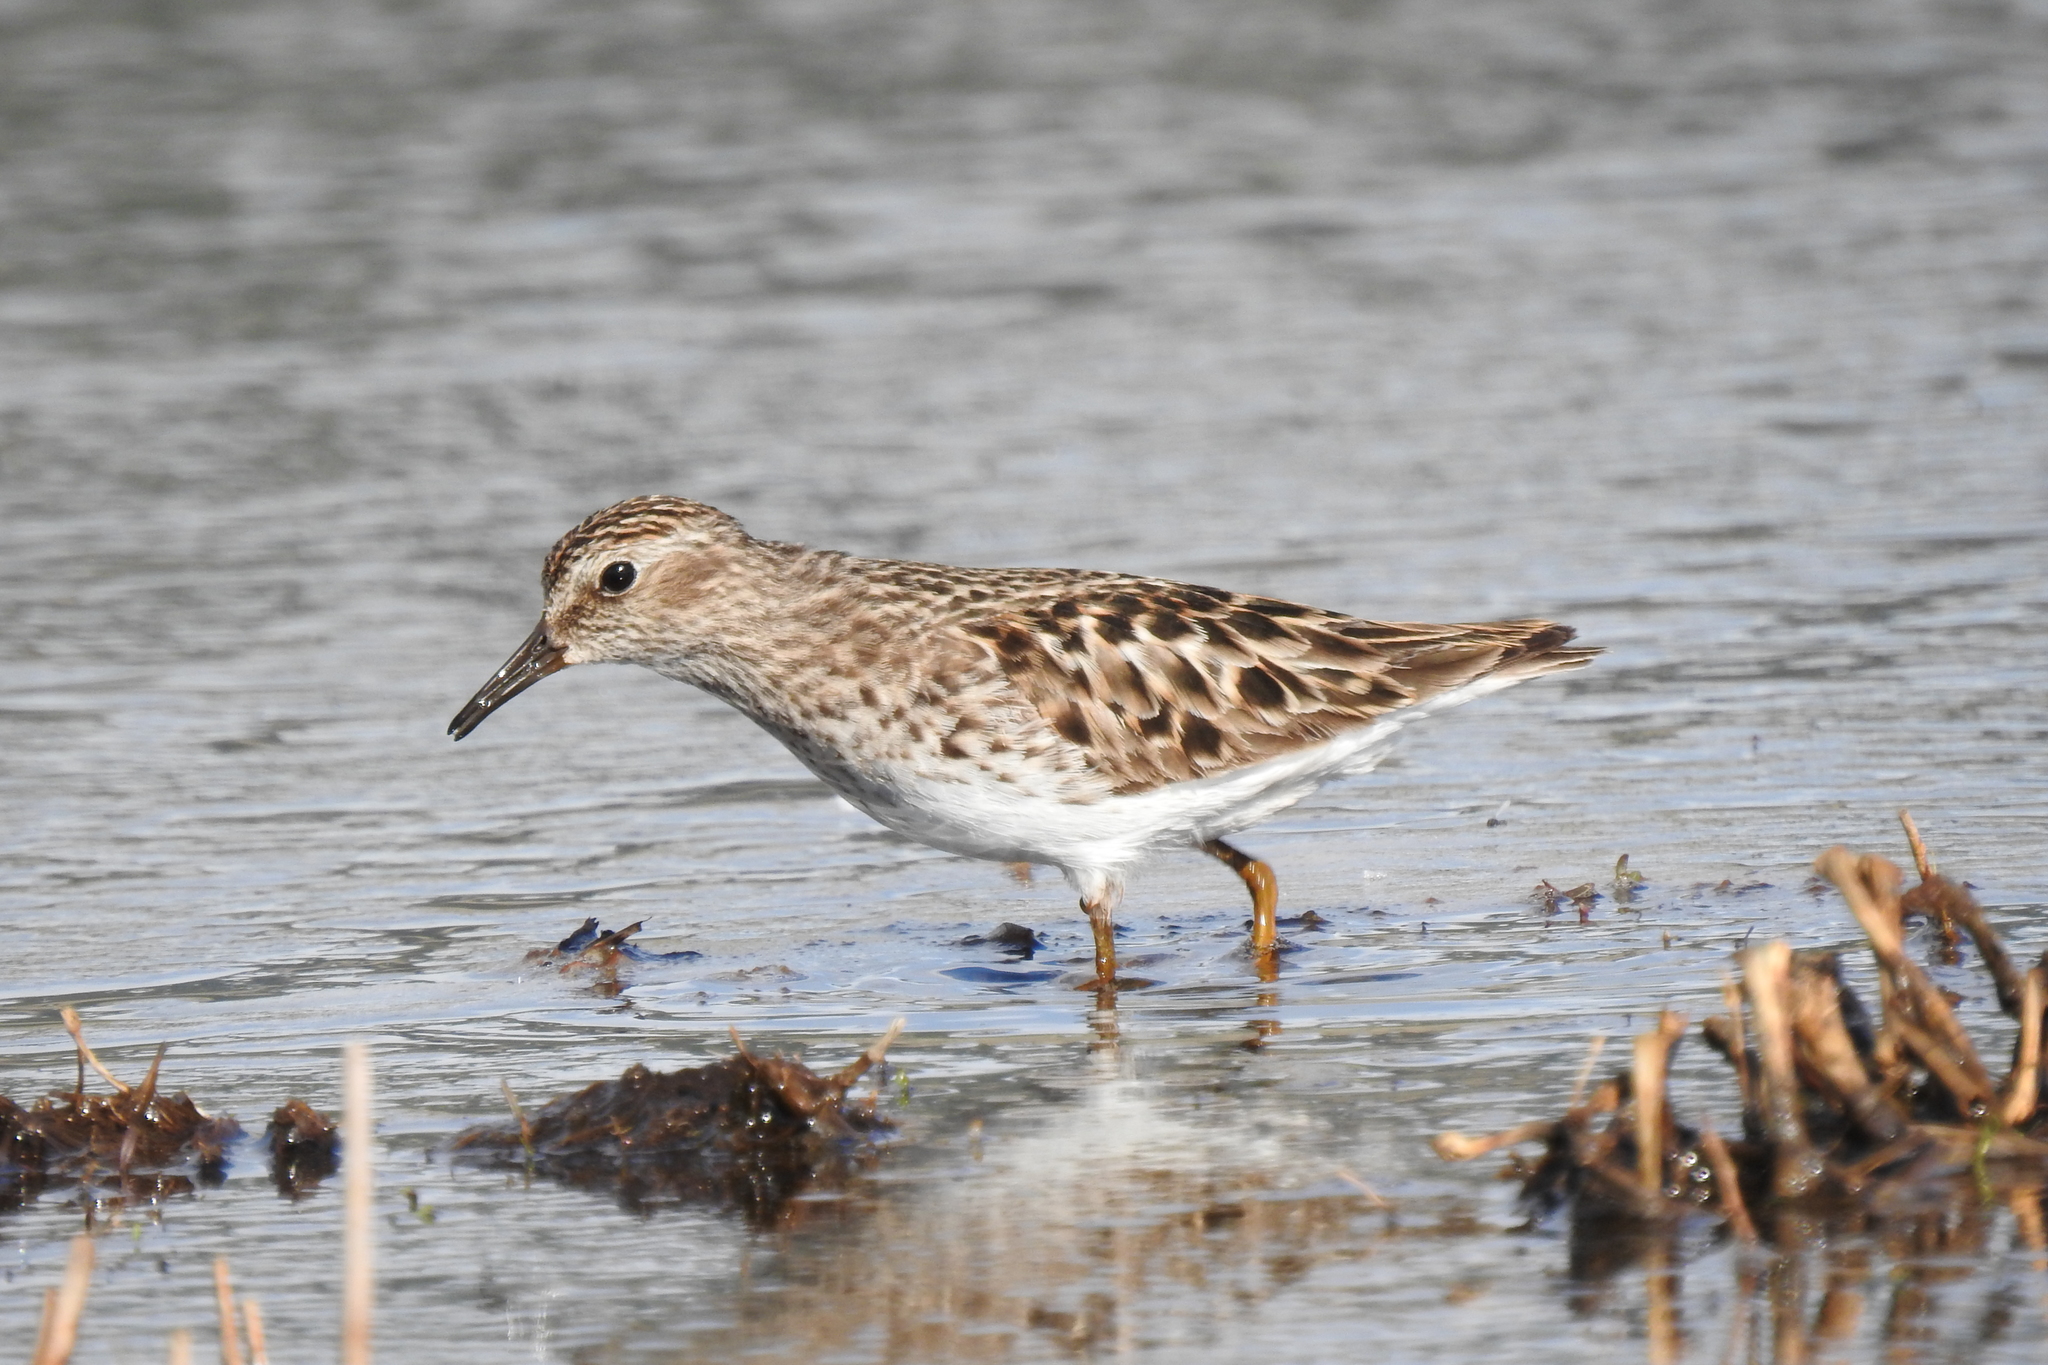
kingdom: Animalia
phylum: Chordata
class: Aves
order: Charadriiformes
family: Scolopacidae
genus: Calidris
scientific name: Calidris minutilla
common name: Least sandpiper
